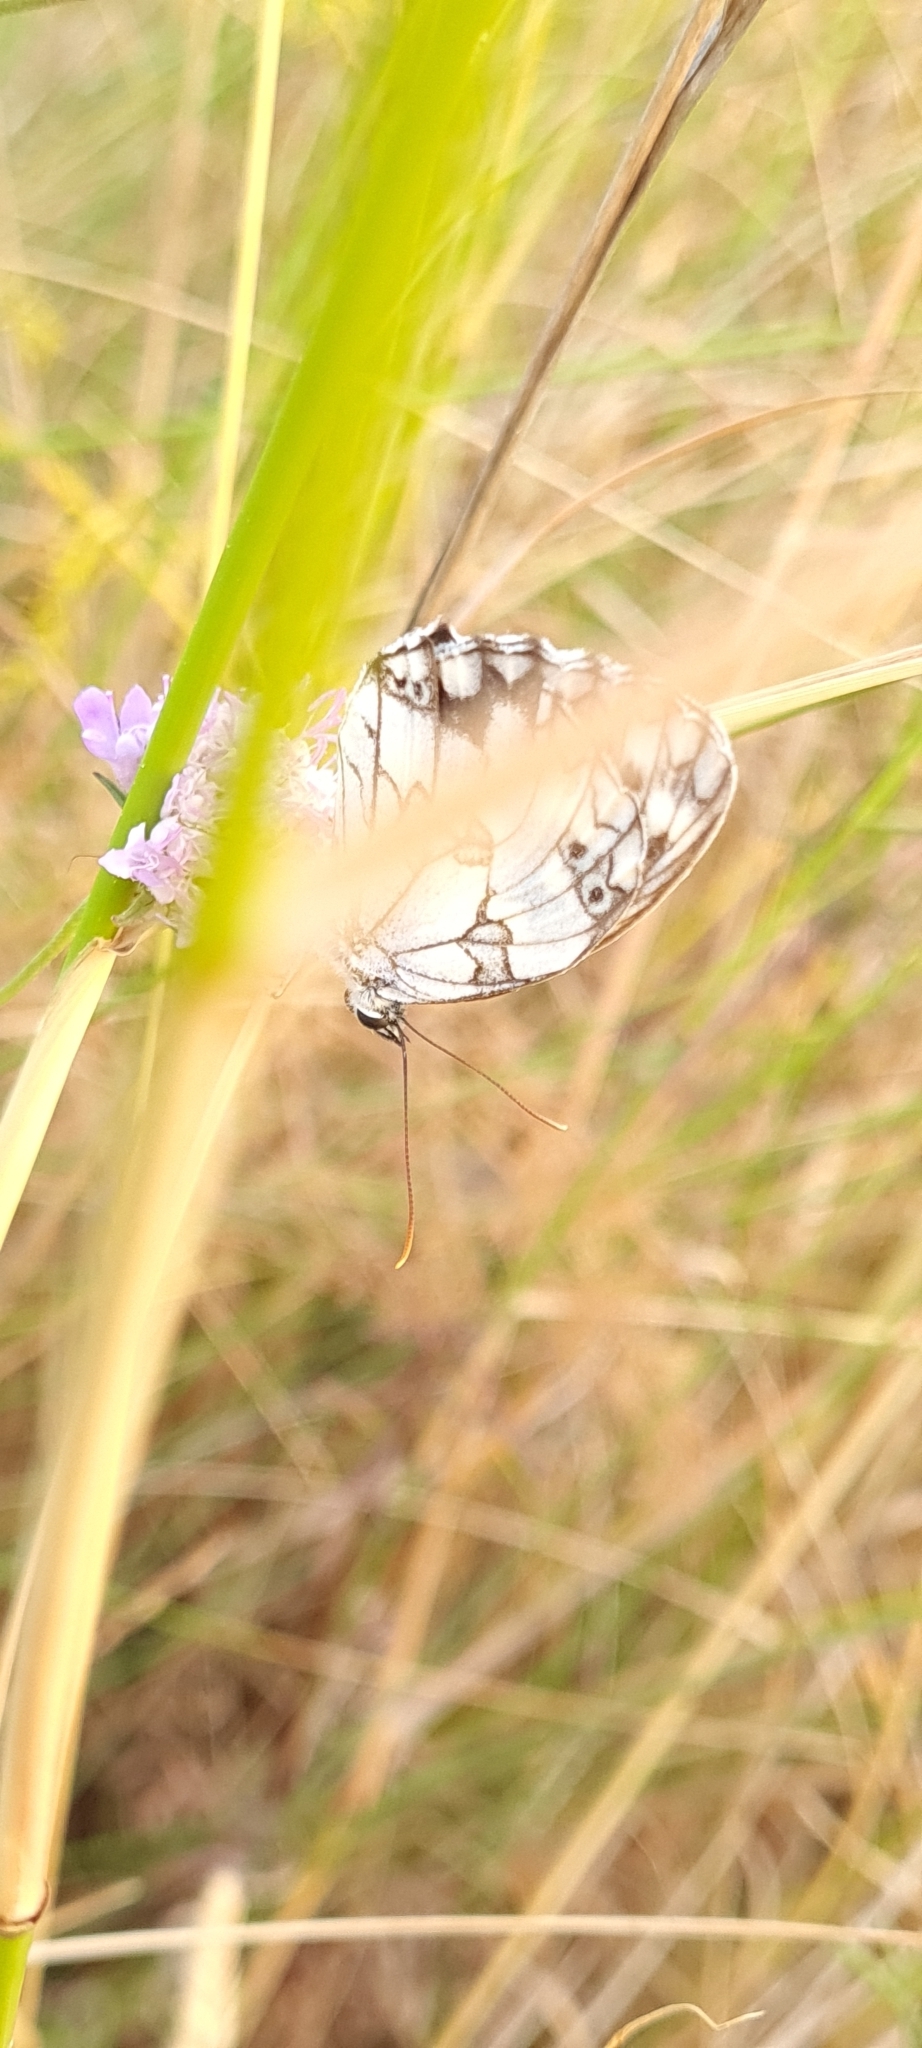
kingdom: Animalia
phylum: Arthropoda
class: Insecta
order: Lepidoptera
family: Nymphalidae
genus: Melanargia
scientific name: Melanargia lachesis
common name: Iberian marbled white
